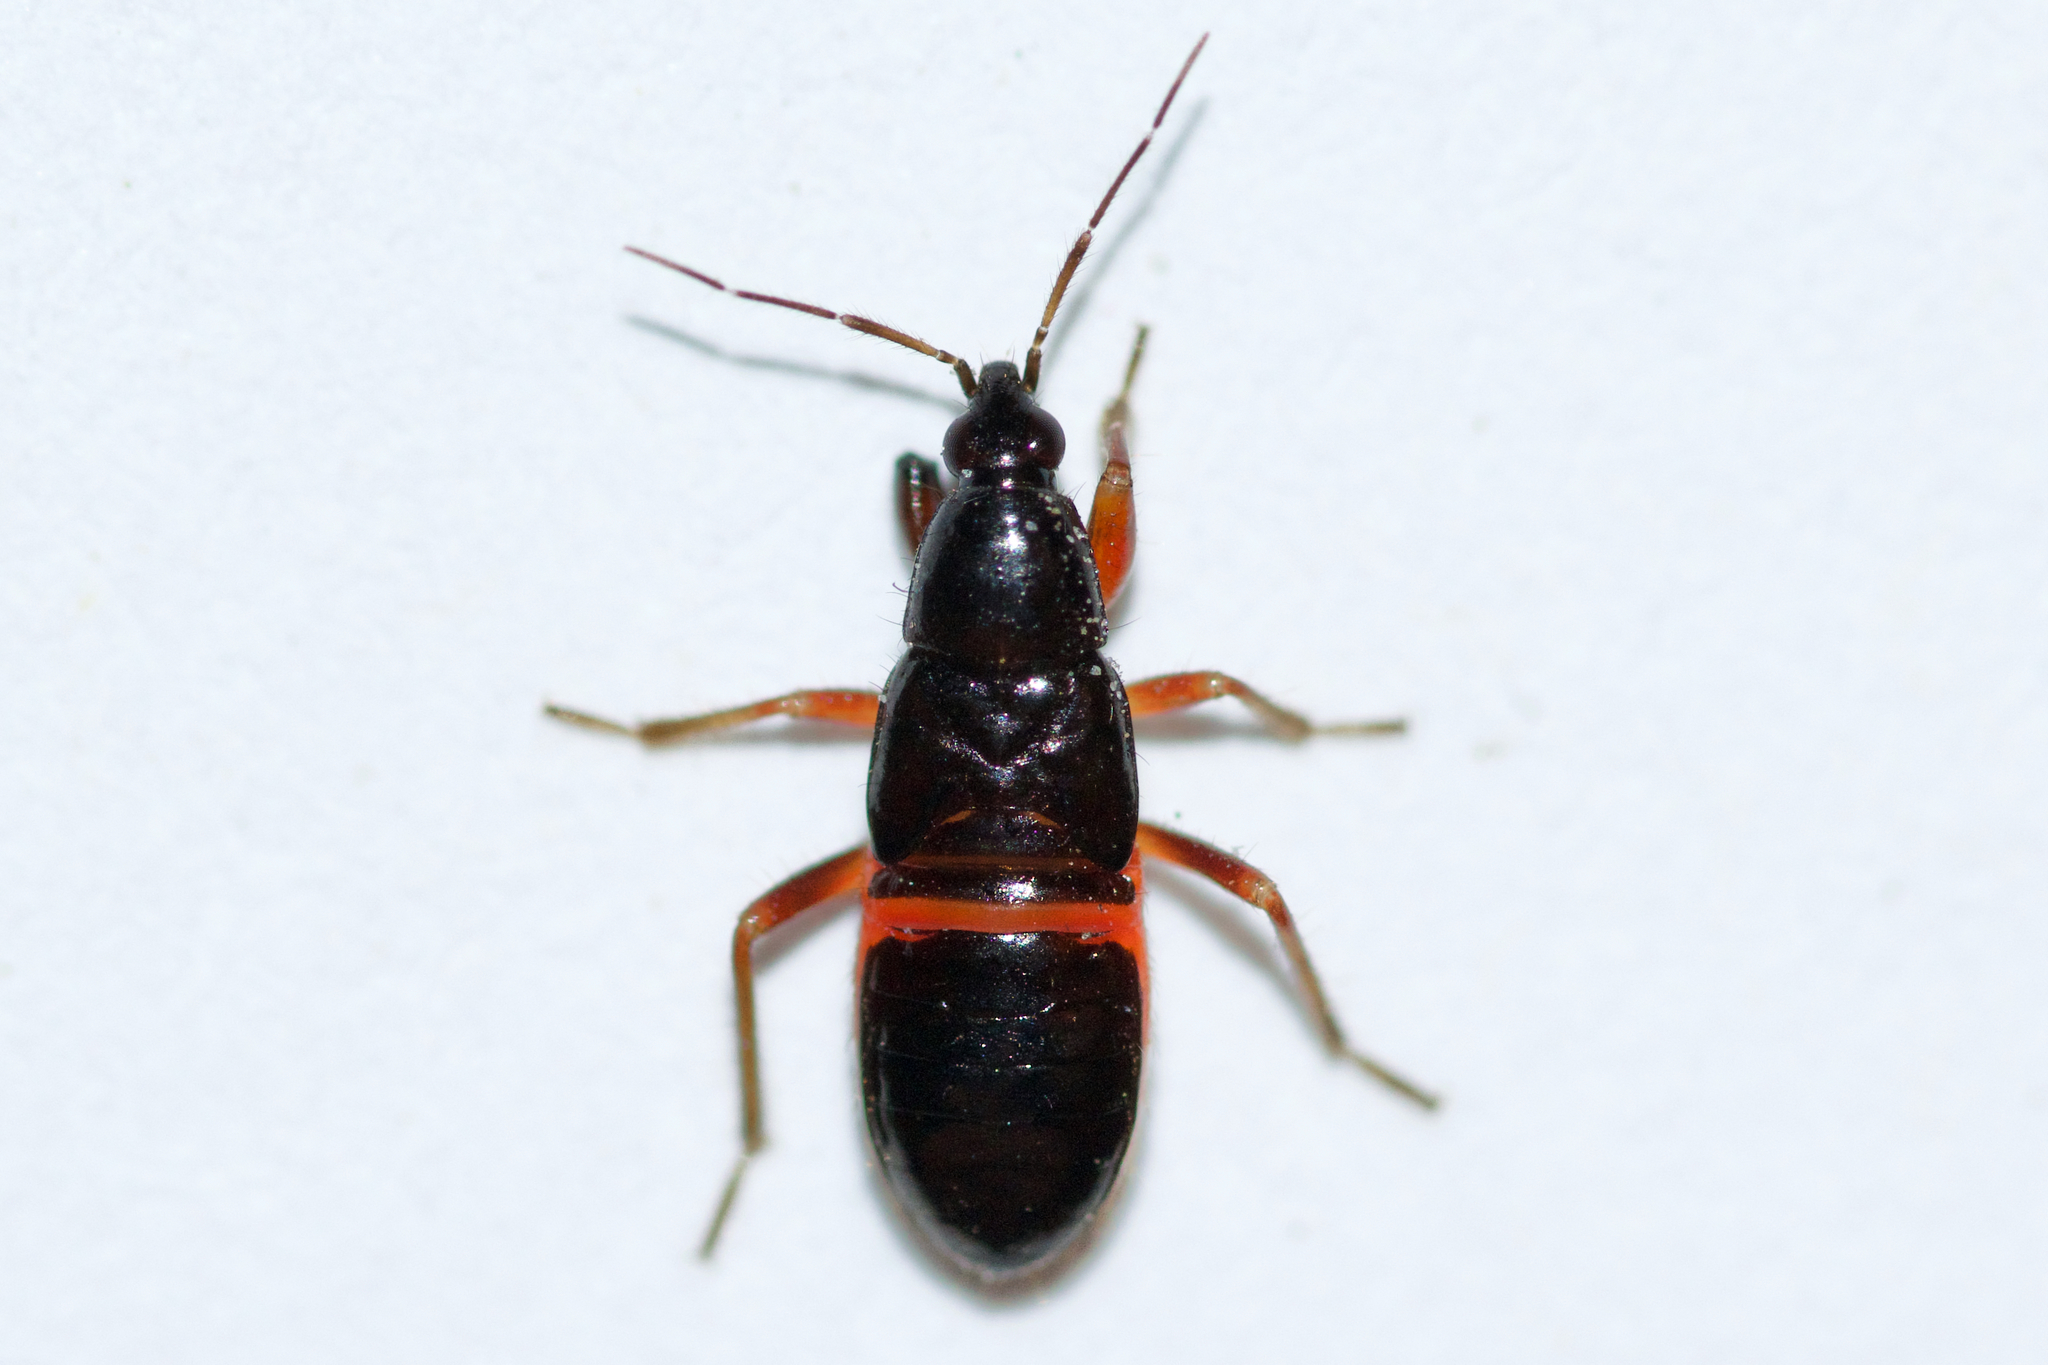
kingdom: Animalia
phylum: Arthropoda
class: Insecta
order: Hemiptera
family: Nabidae
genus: Pagasa
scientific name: Pagasa fusca
